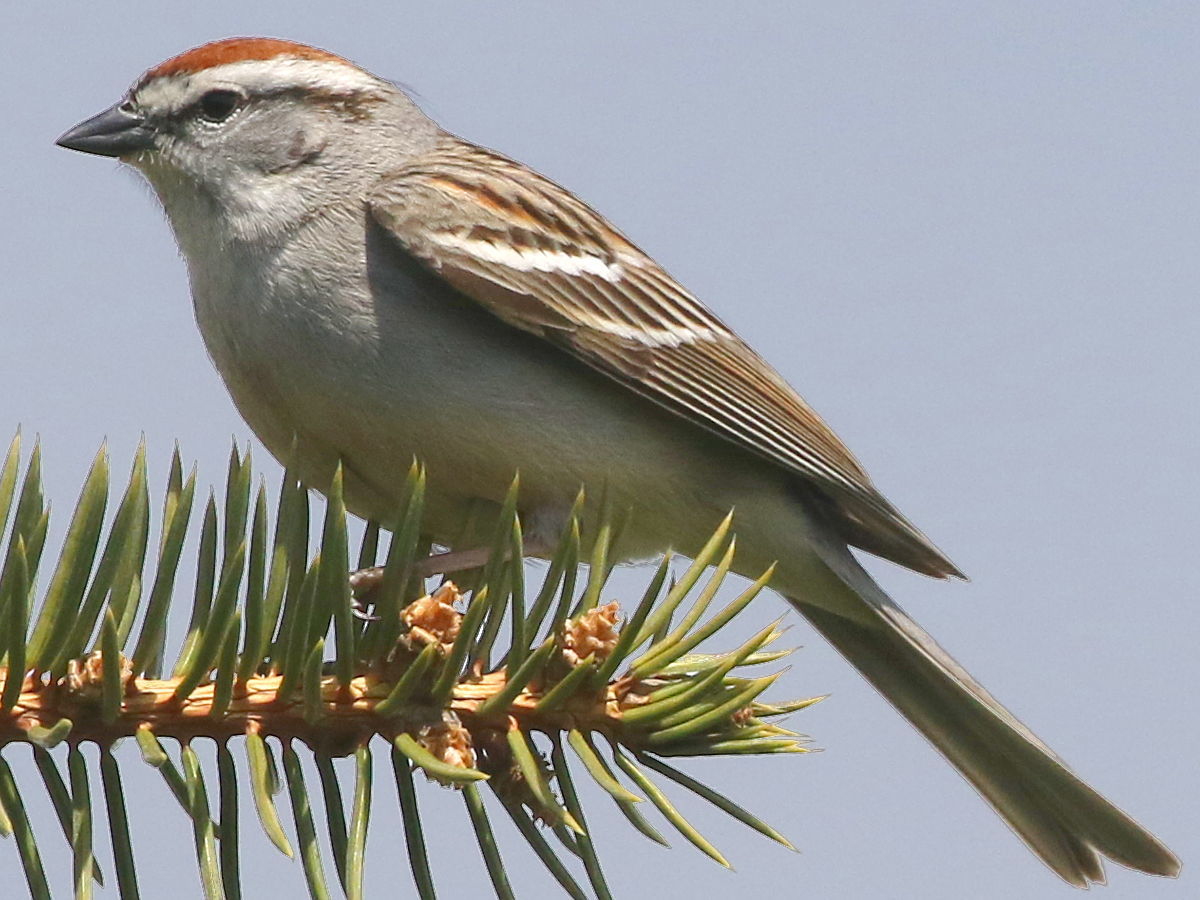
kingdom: Animalia
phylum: Chordata
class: Aves
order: Passeriformes
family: Passerellidae
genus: Spizella
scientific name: Spizella passerina
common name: Chipping sparrow
